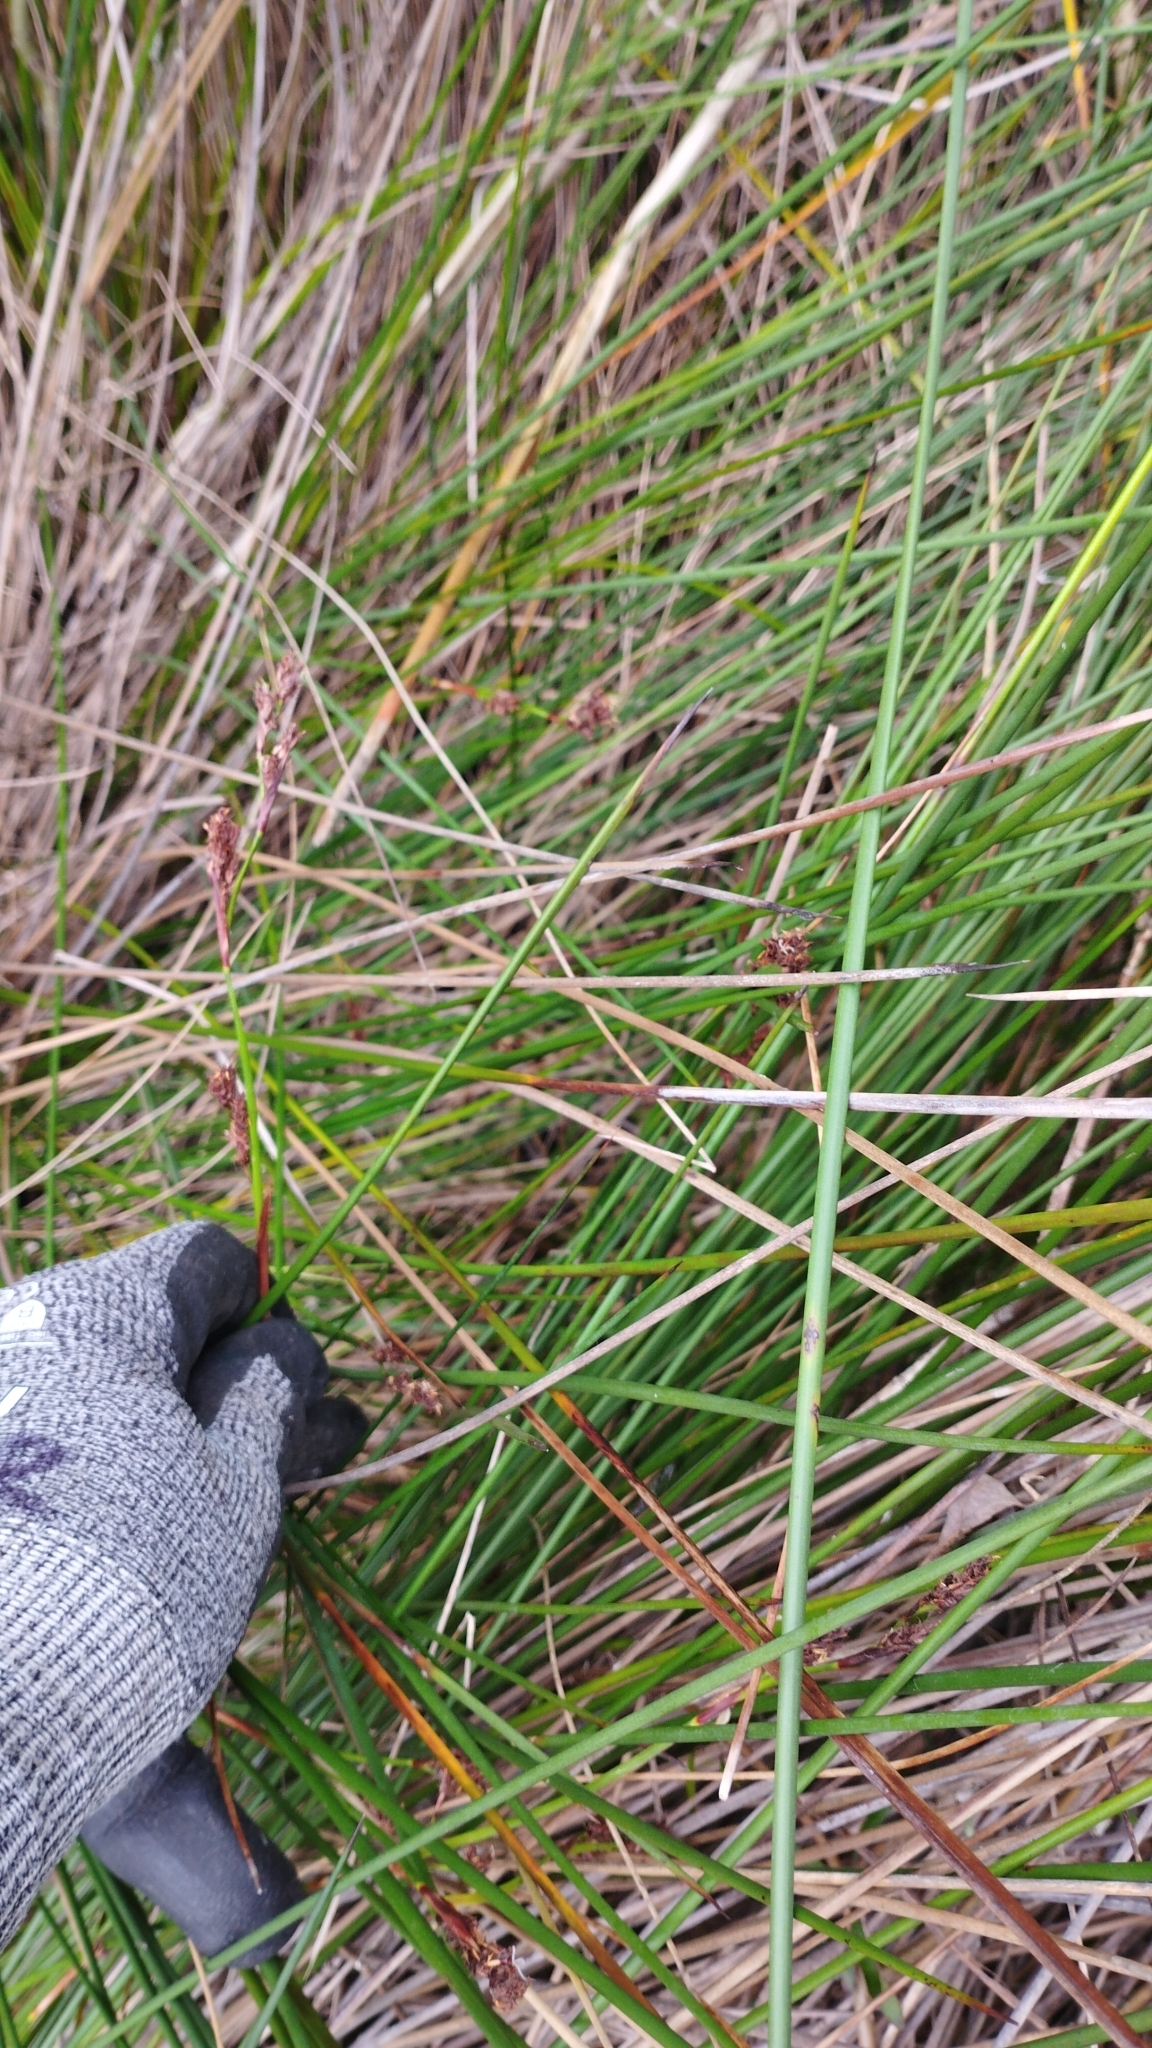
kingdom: Plantae
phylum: Tracheophyta
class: Liliopsida
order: Poales
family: Cyperaceae
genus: Machaerina
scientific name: Machaerina rubiginosa
